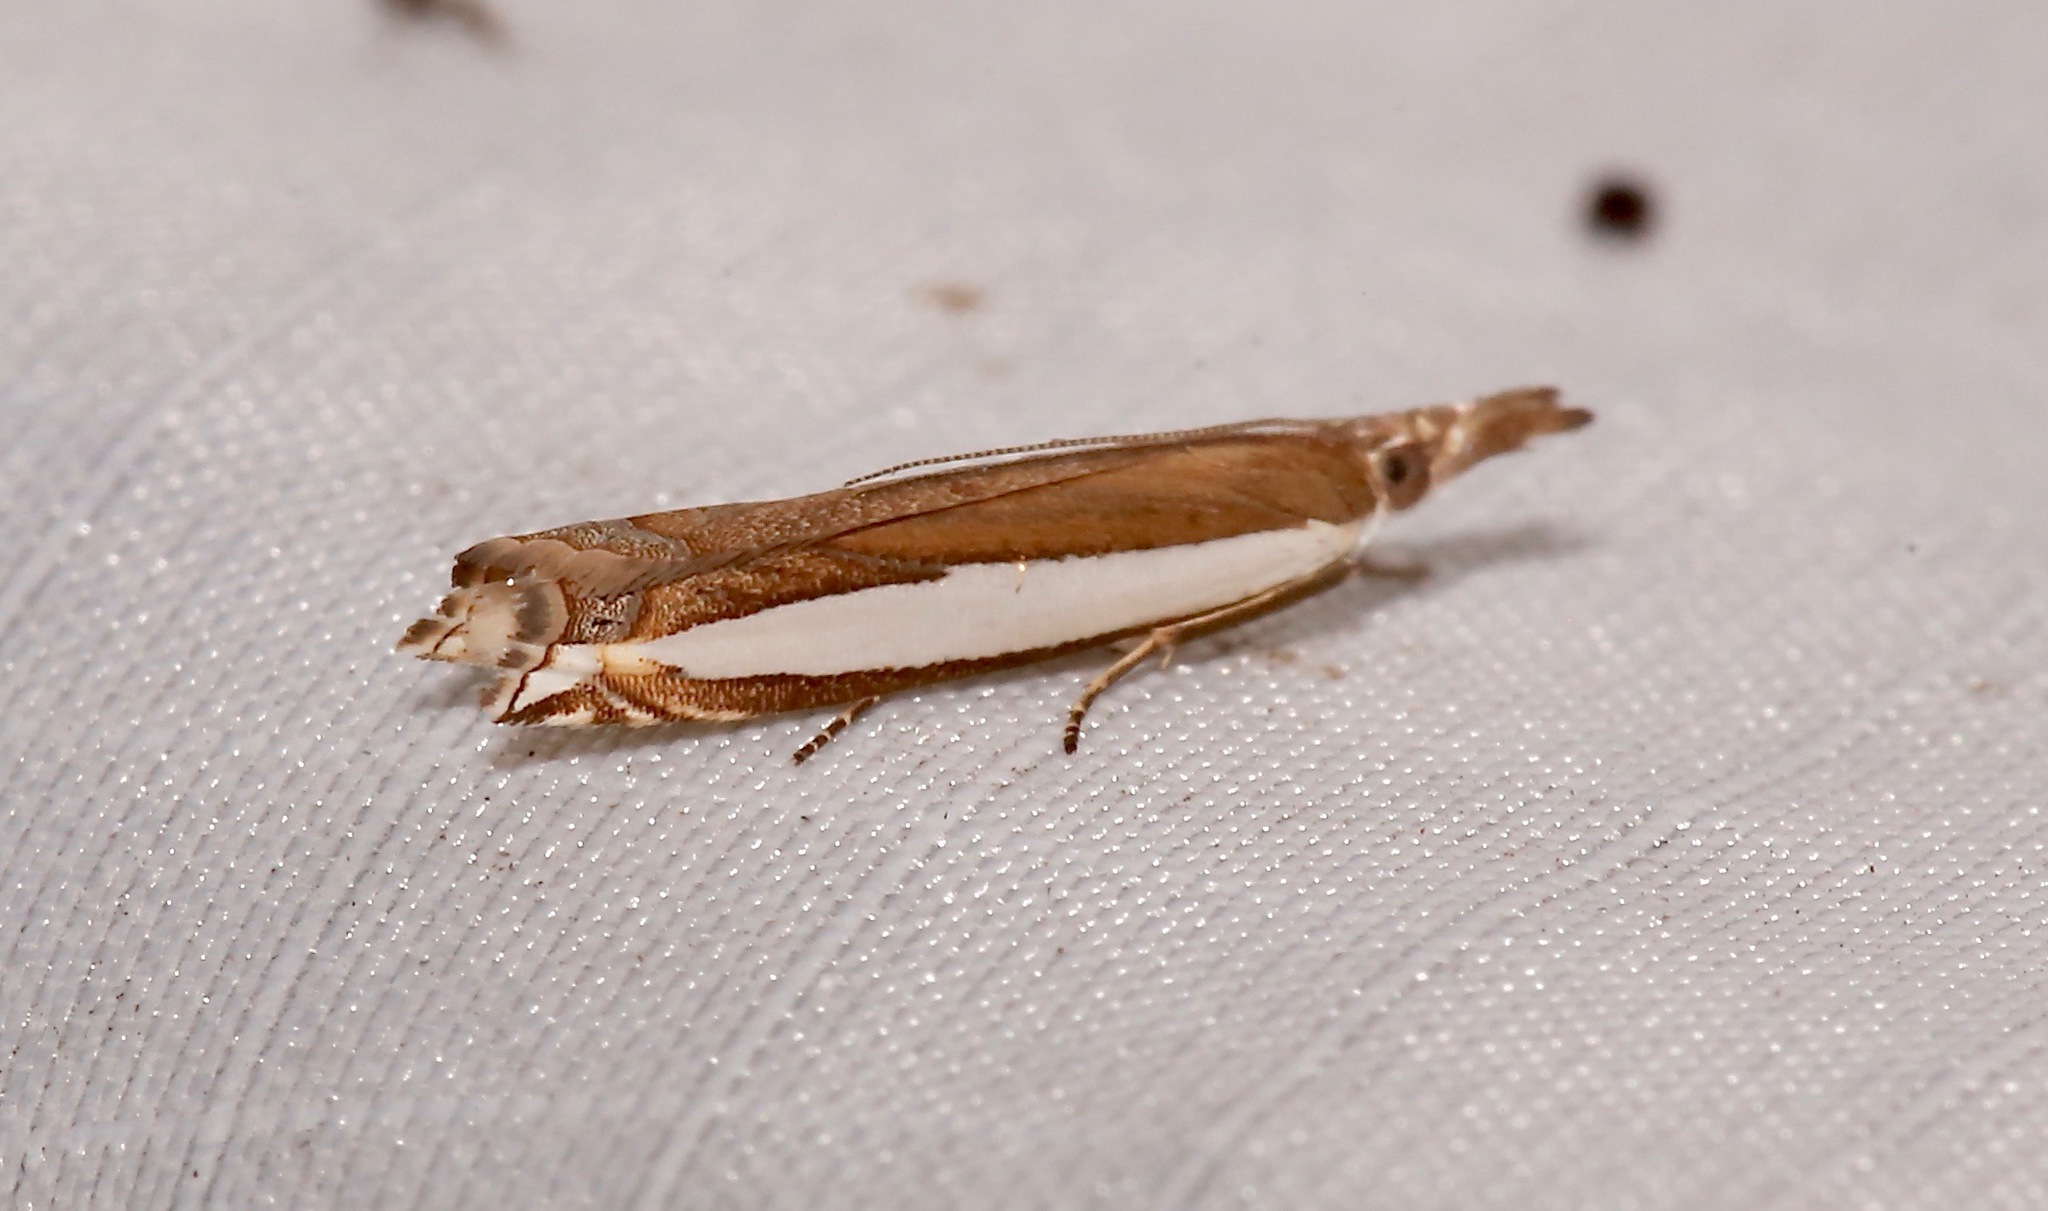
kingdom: Animalia
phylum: Arthropoda
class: Insecta
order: Lepidoptera
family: Crambidae
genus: Crambus
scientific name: Crambus quinquareatus
